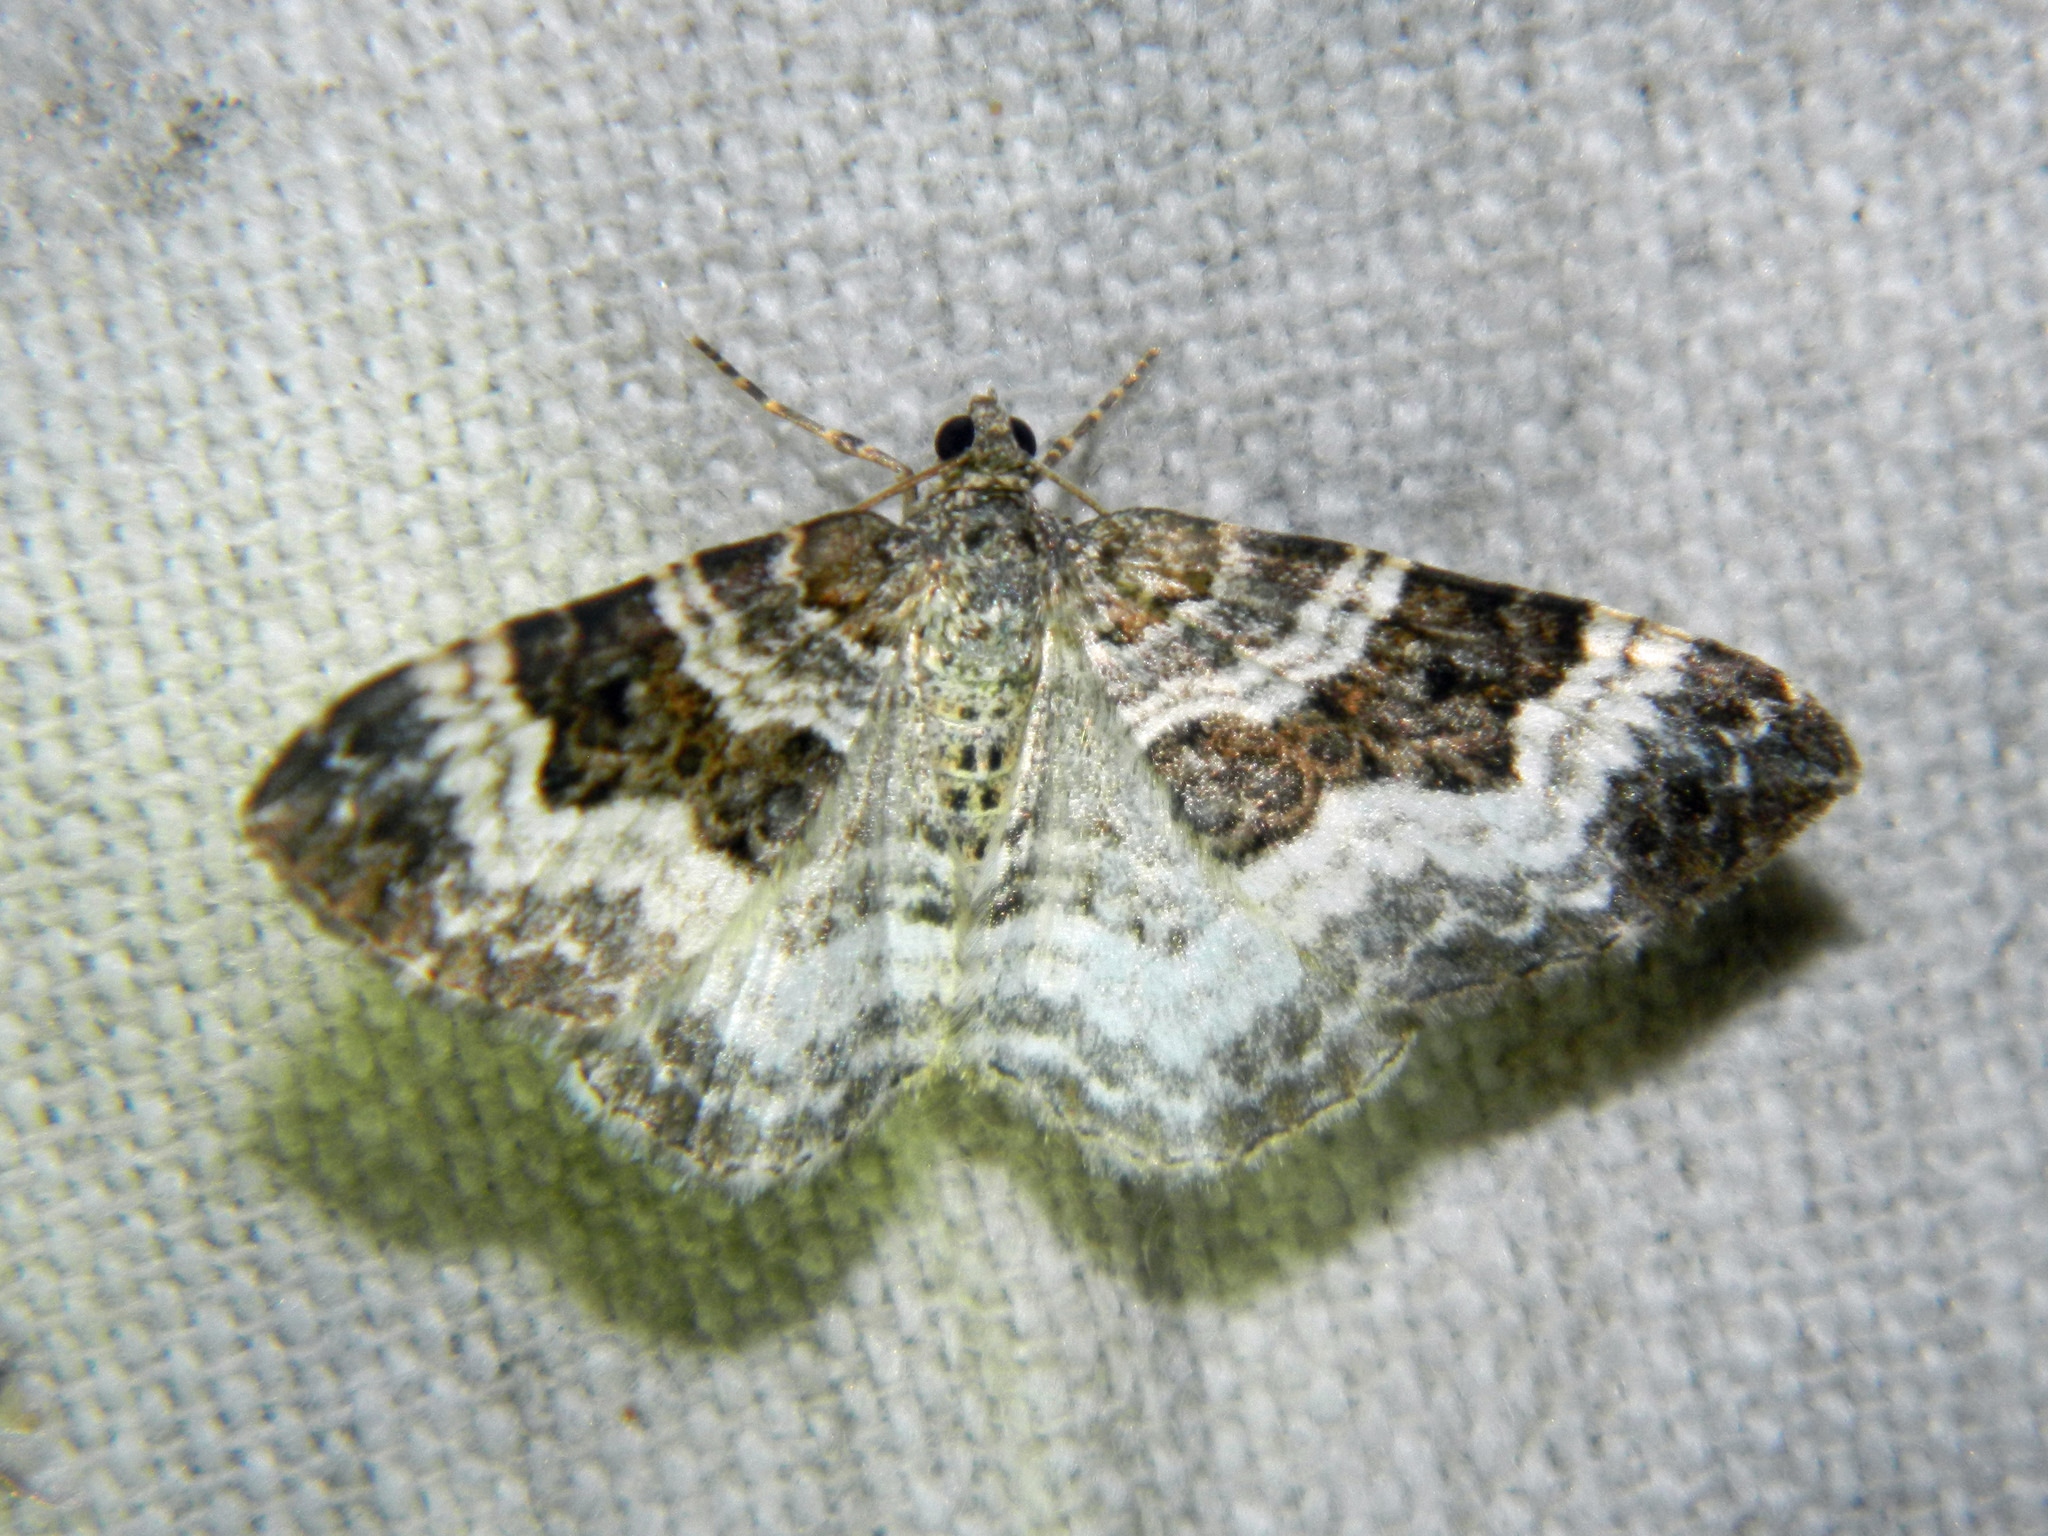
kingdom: Animalia
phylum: Arthropoda
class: Insecta
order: Lepidoptera
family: Geometridae
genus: Epirrhoe
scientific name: Epirrhoe alternata
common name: Common carpet
